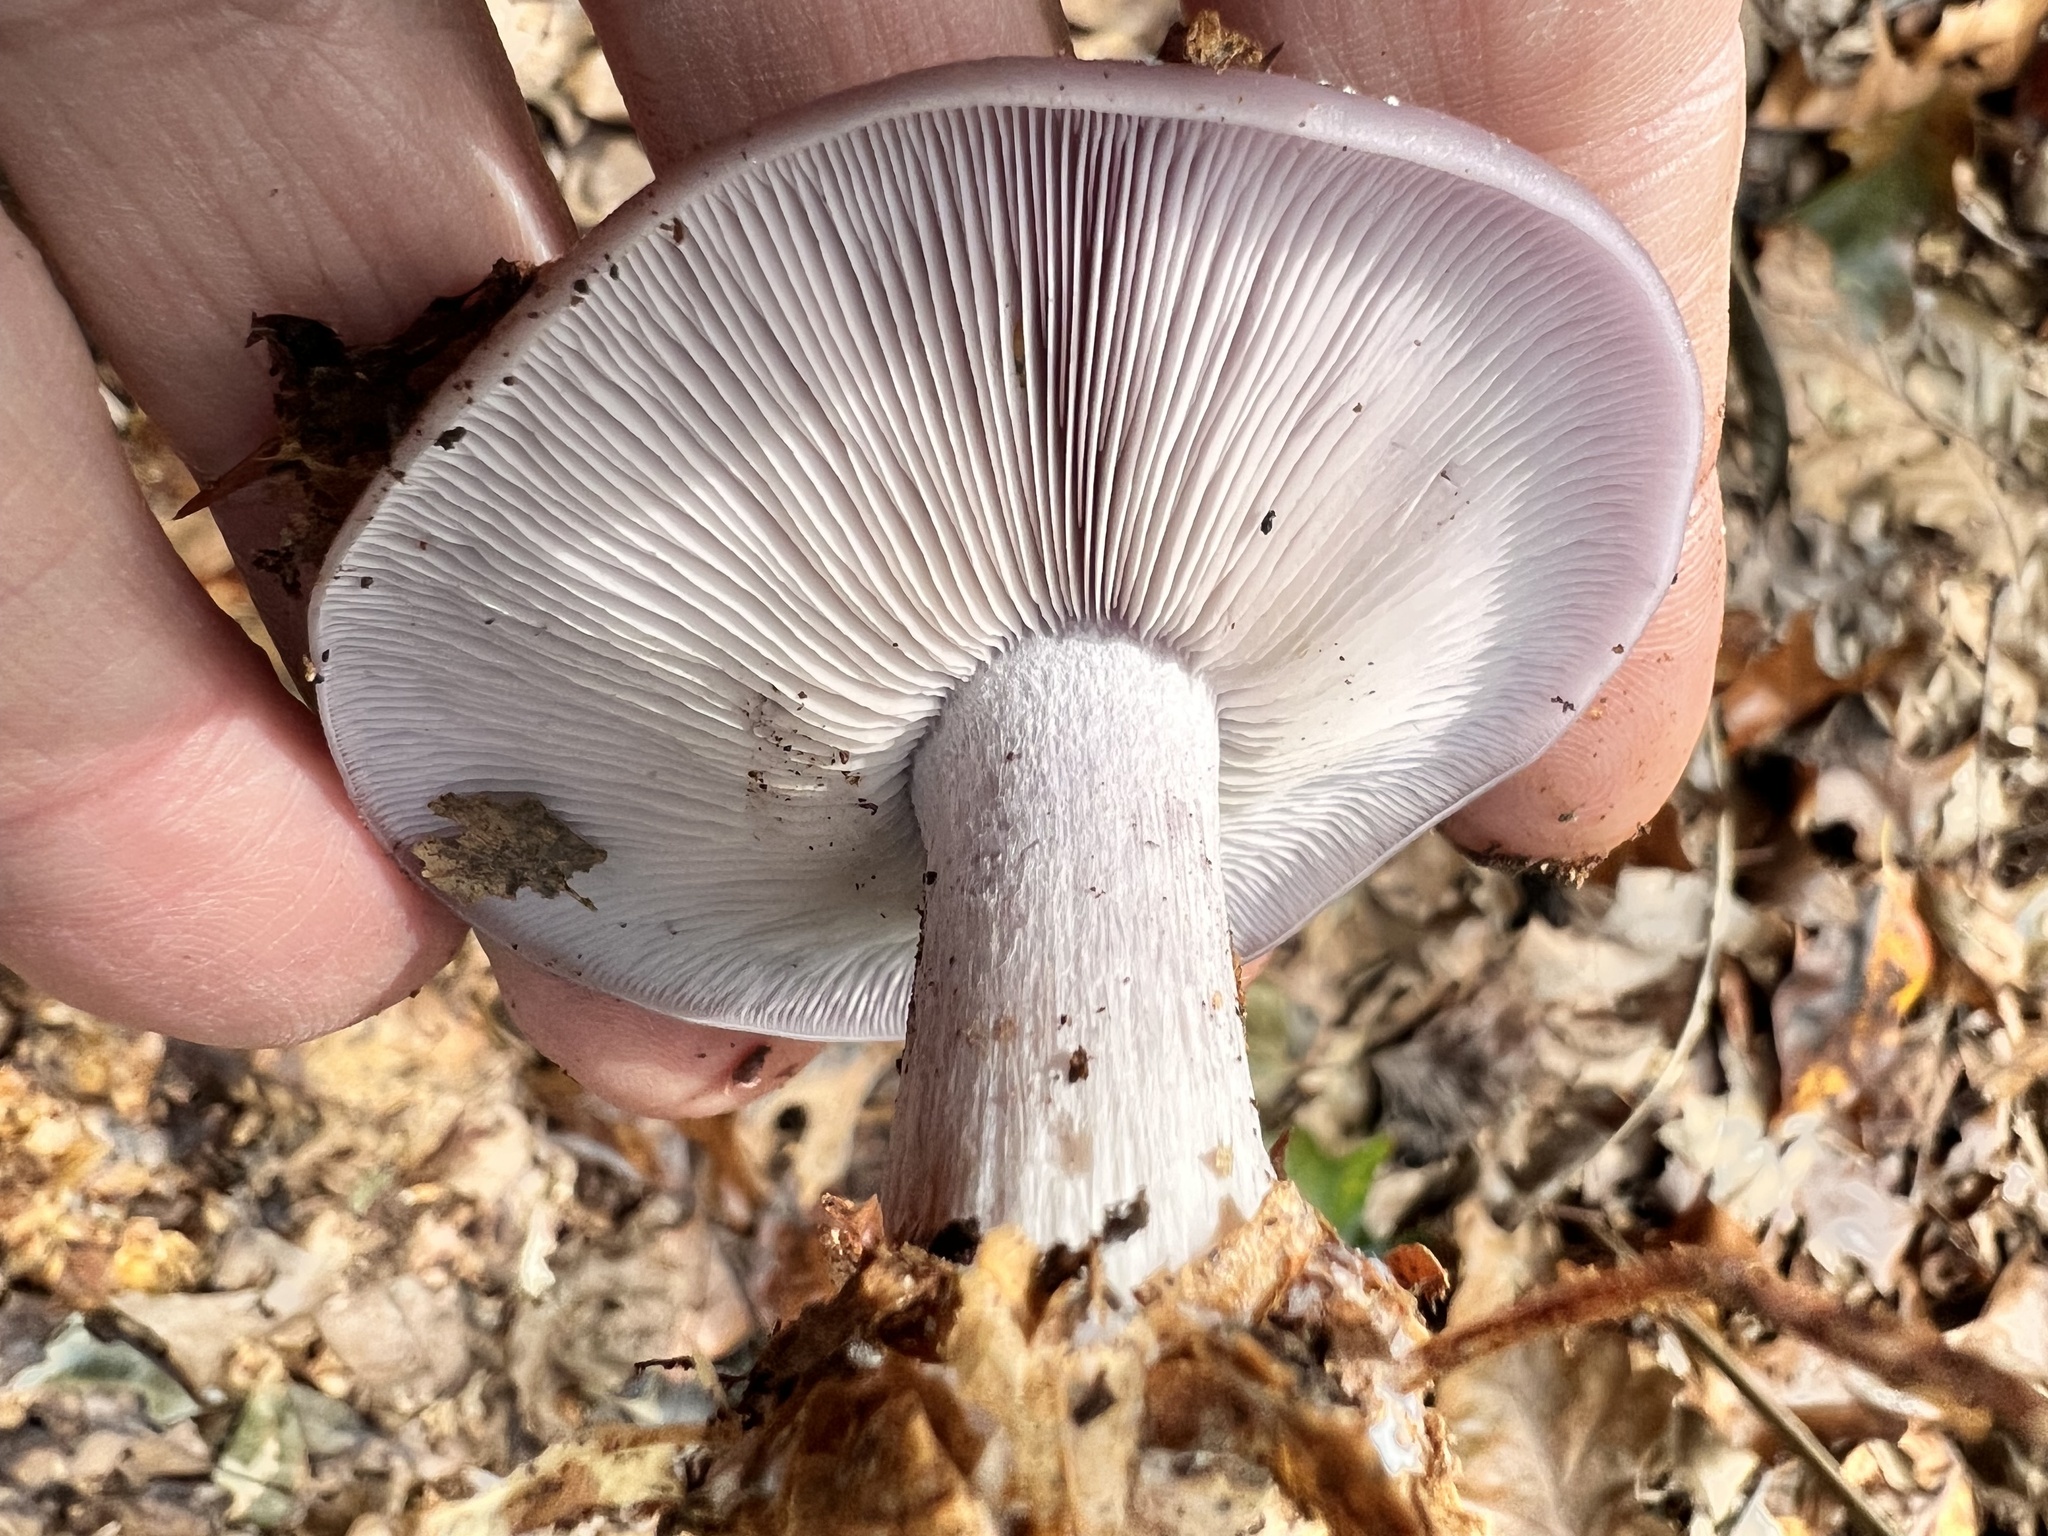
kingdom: Fungi
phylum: Basidiomycota
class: Agaricomycetes
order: Agaricales
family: Tricholomataceae
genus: Collybia
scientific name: Collybia
